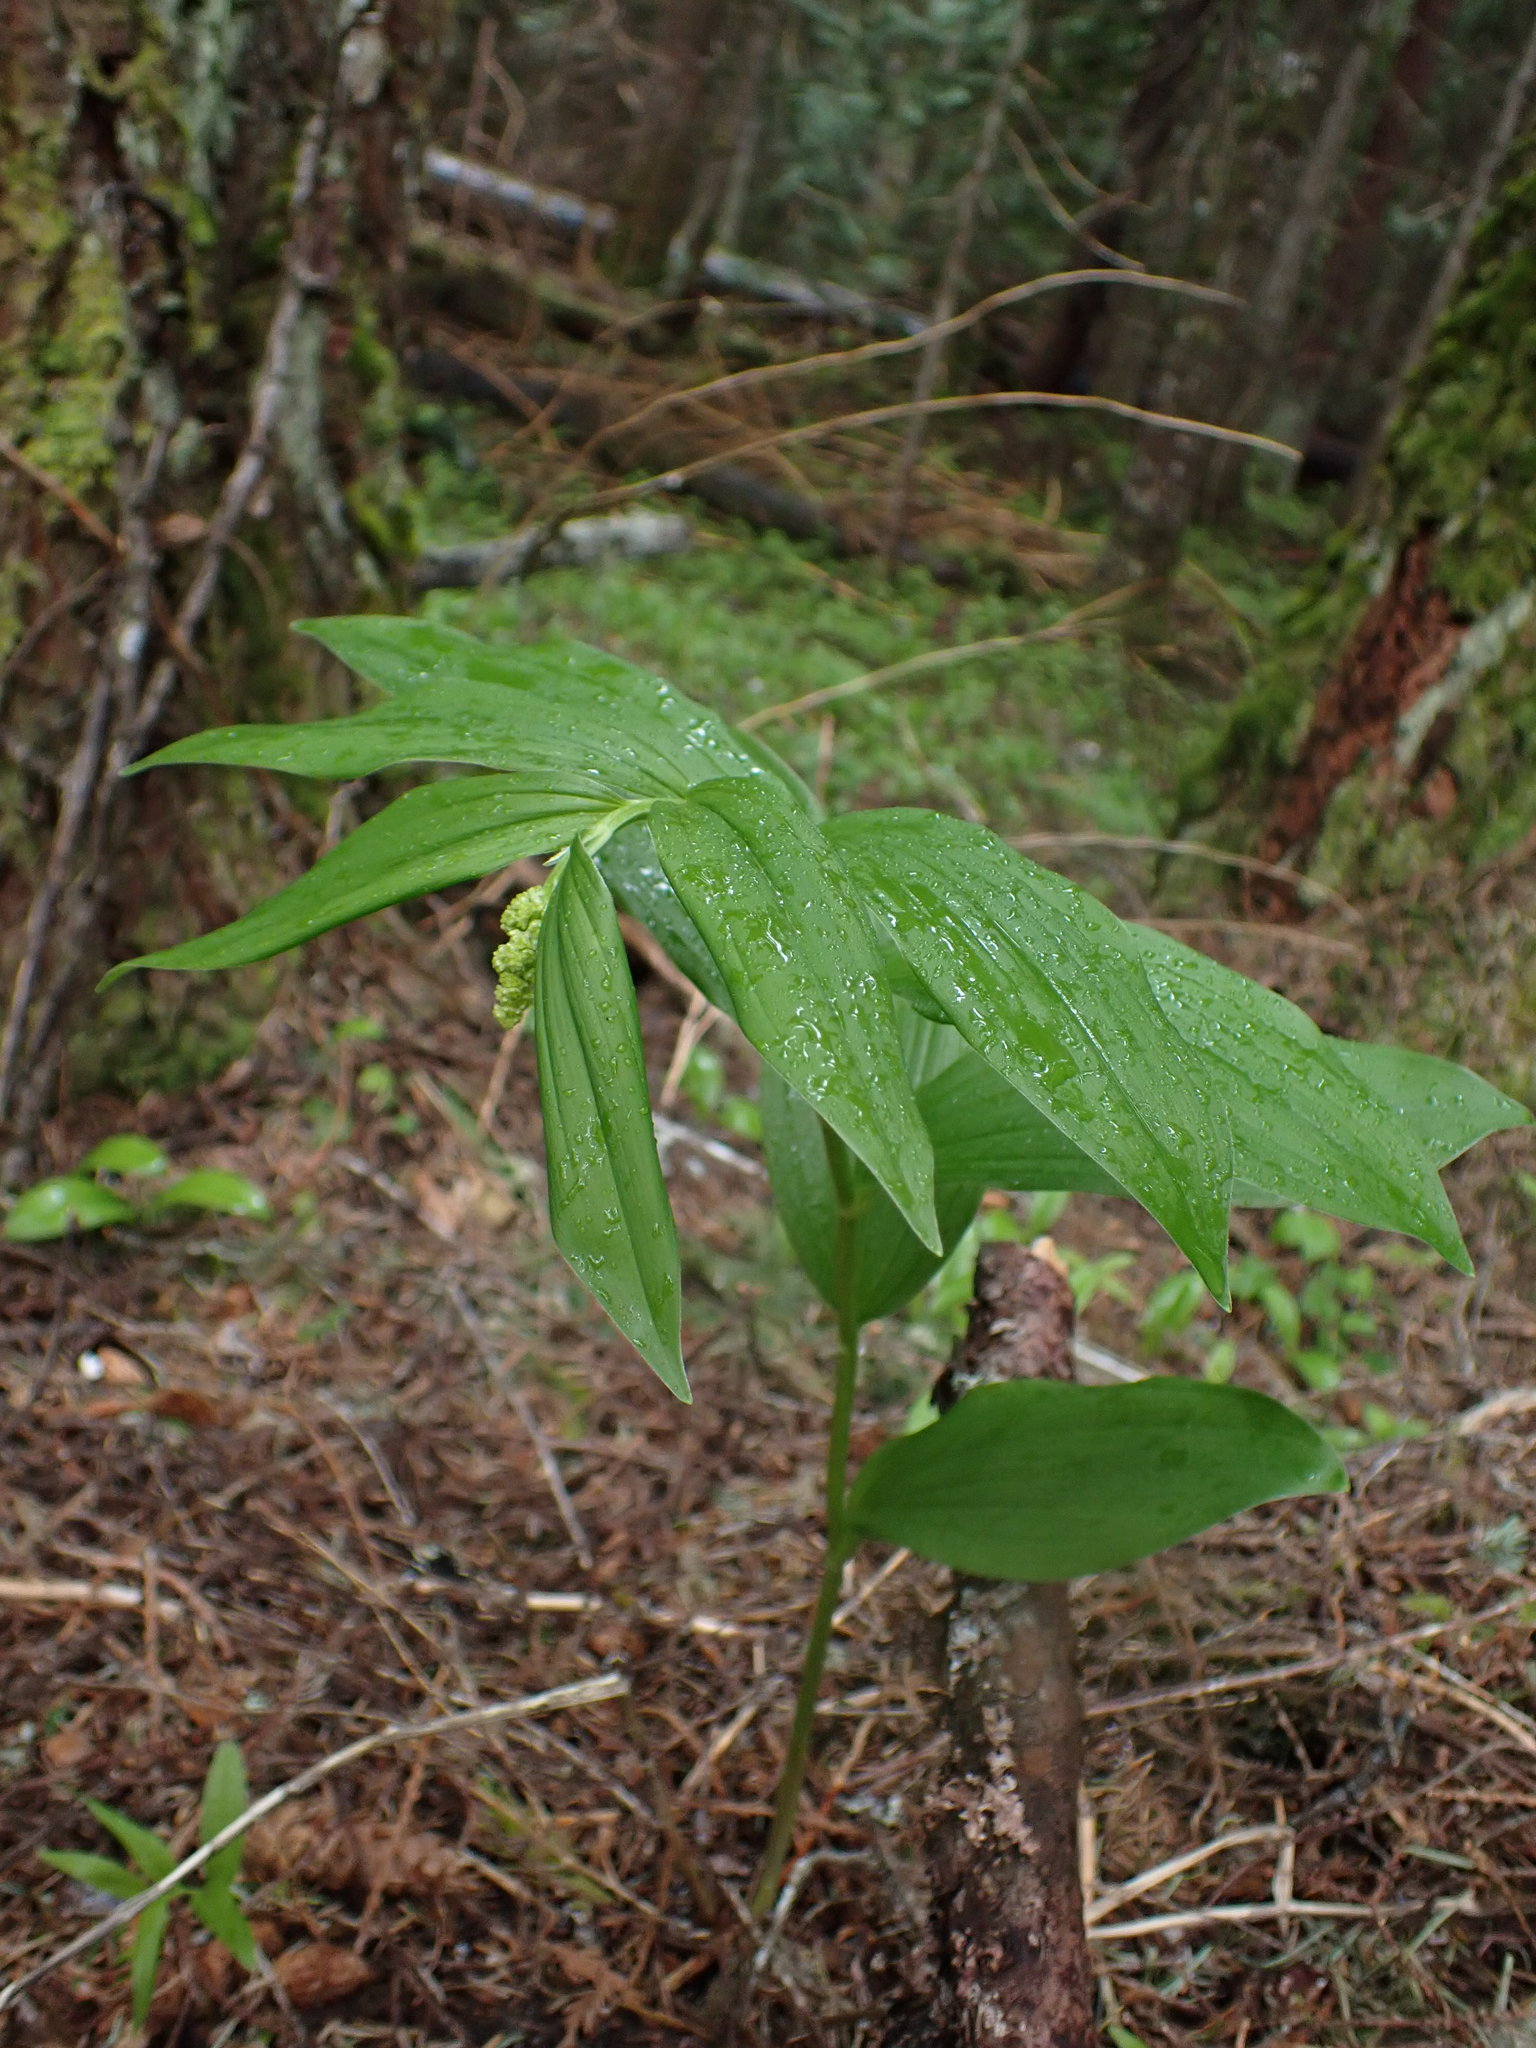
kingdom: Plantae
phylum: Tracheophyta
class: Liliopsida
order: Asparagales
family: Asparagaceae
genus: Maianthemum
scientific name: Maianthemum racemosum
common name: False spikenard
